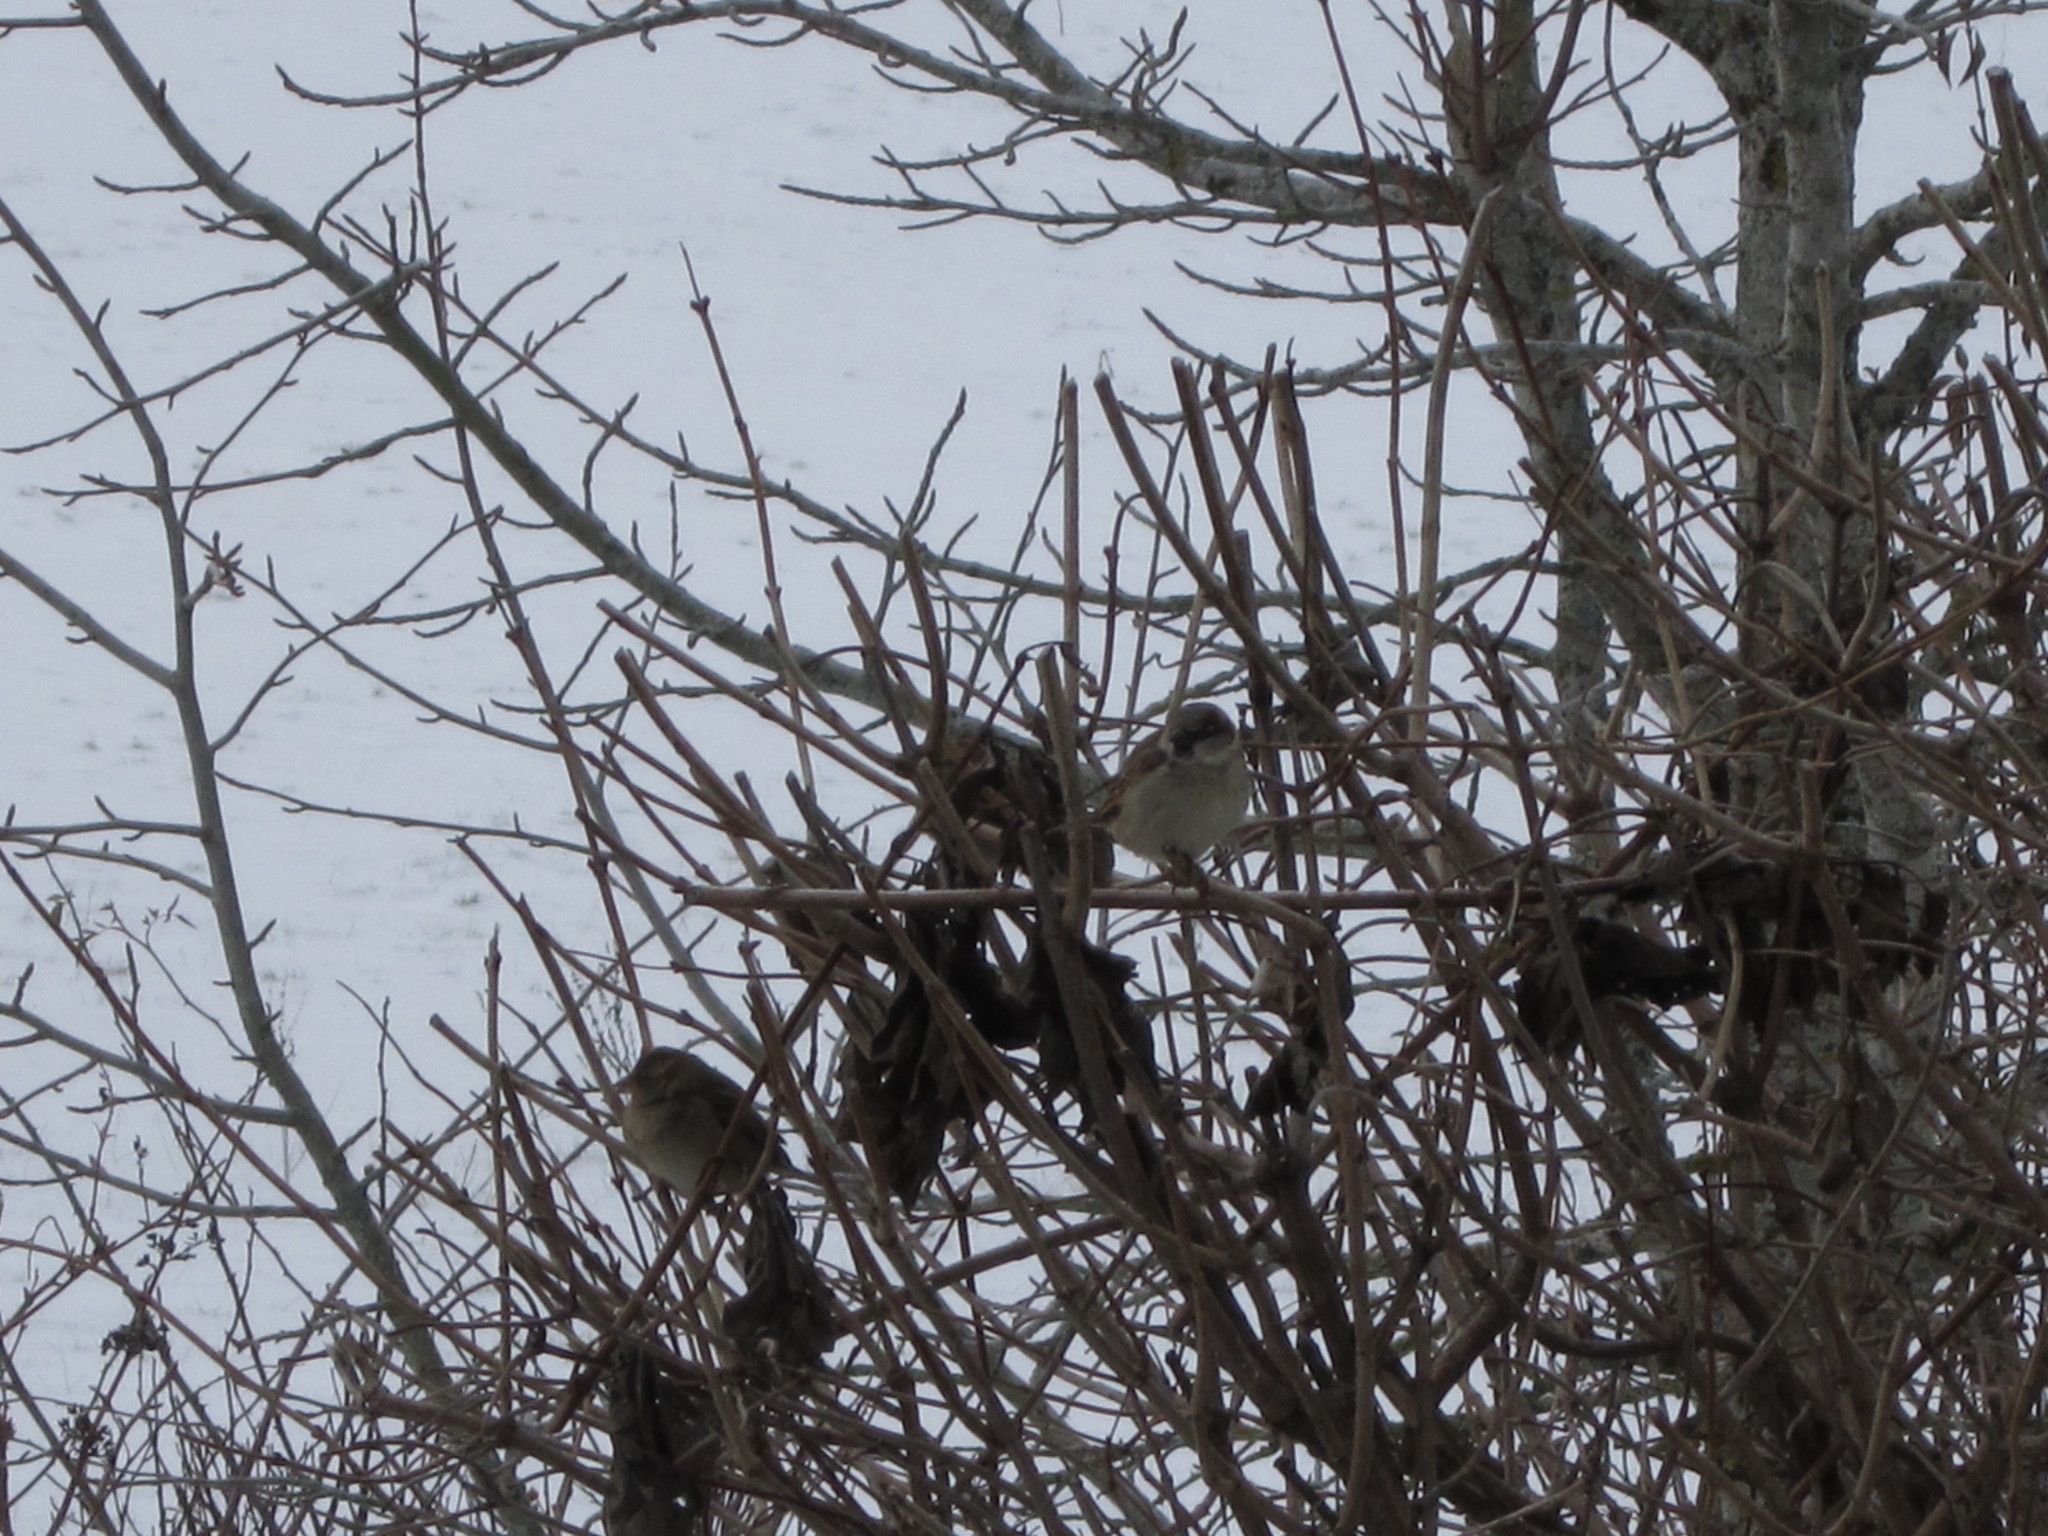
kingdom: Animalia
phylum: Chordata
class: Aves
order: Passeriformes
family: Passeridae
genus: Passer
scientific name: Passer domesticus
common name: House sparrow
